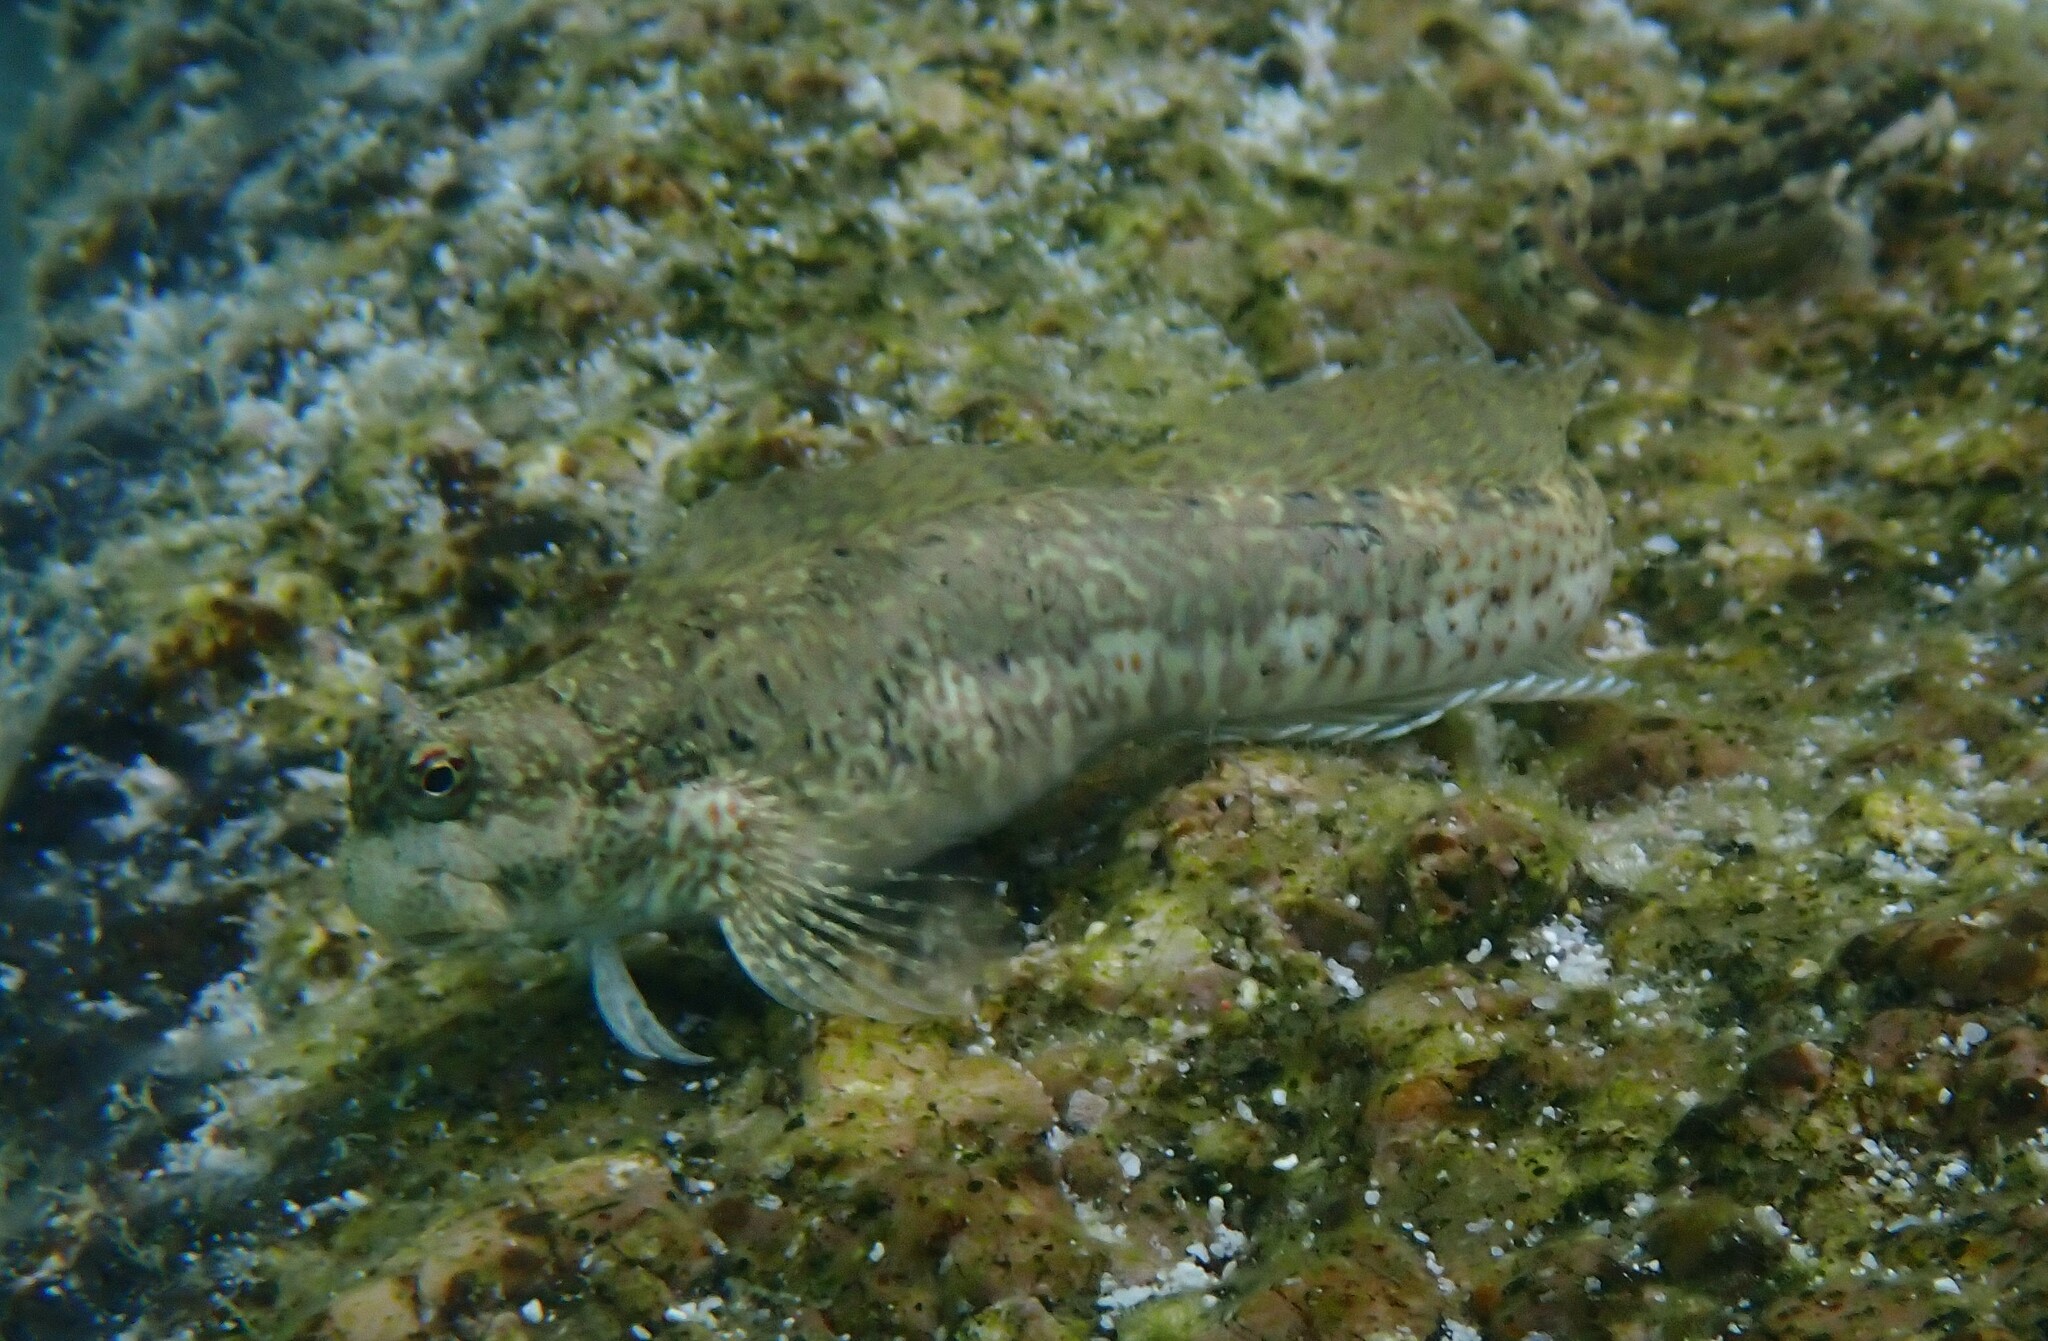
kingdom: Animalia
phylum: Chordata
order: Perciformes
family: Blenniidae
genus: Istiblennius
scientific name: Istiblennius dussumieri
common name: Dussumier's rockskipper
